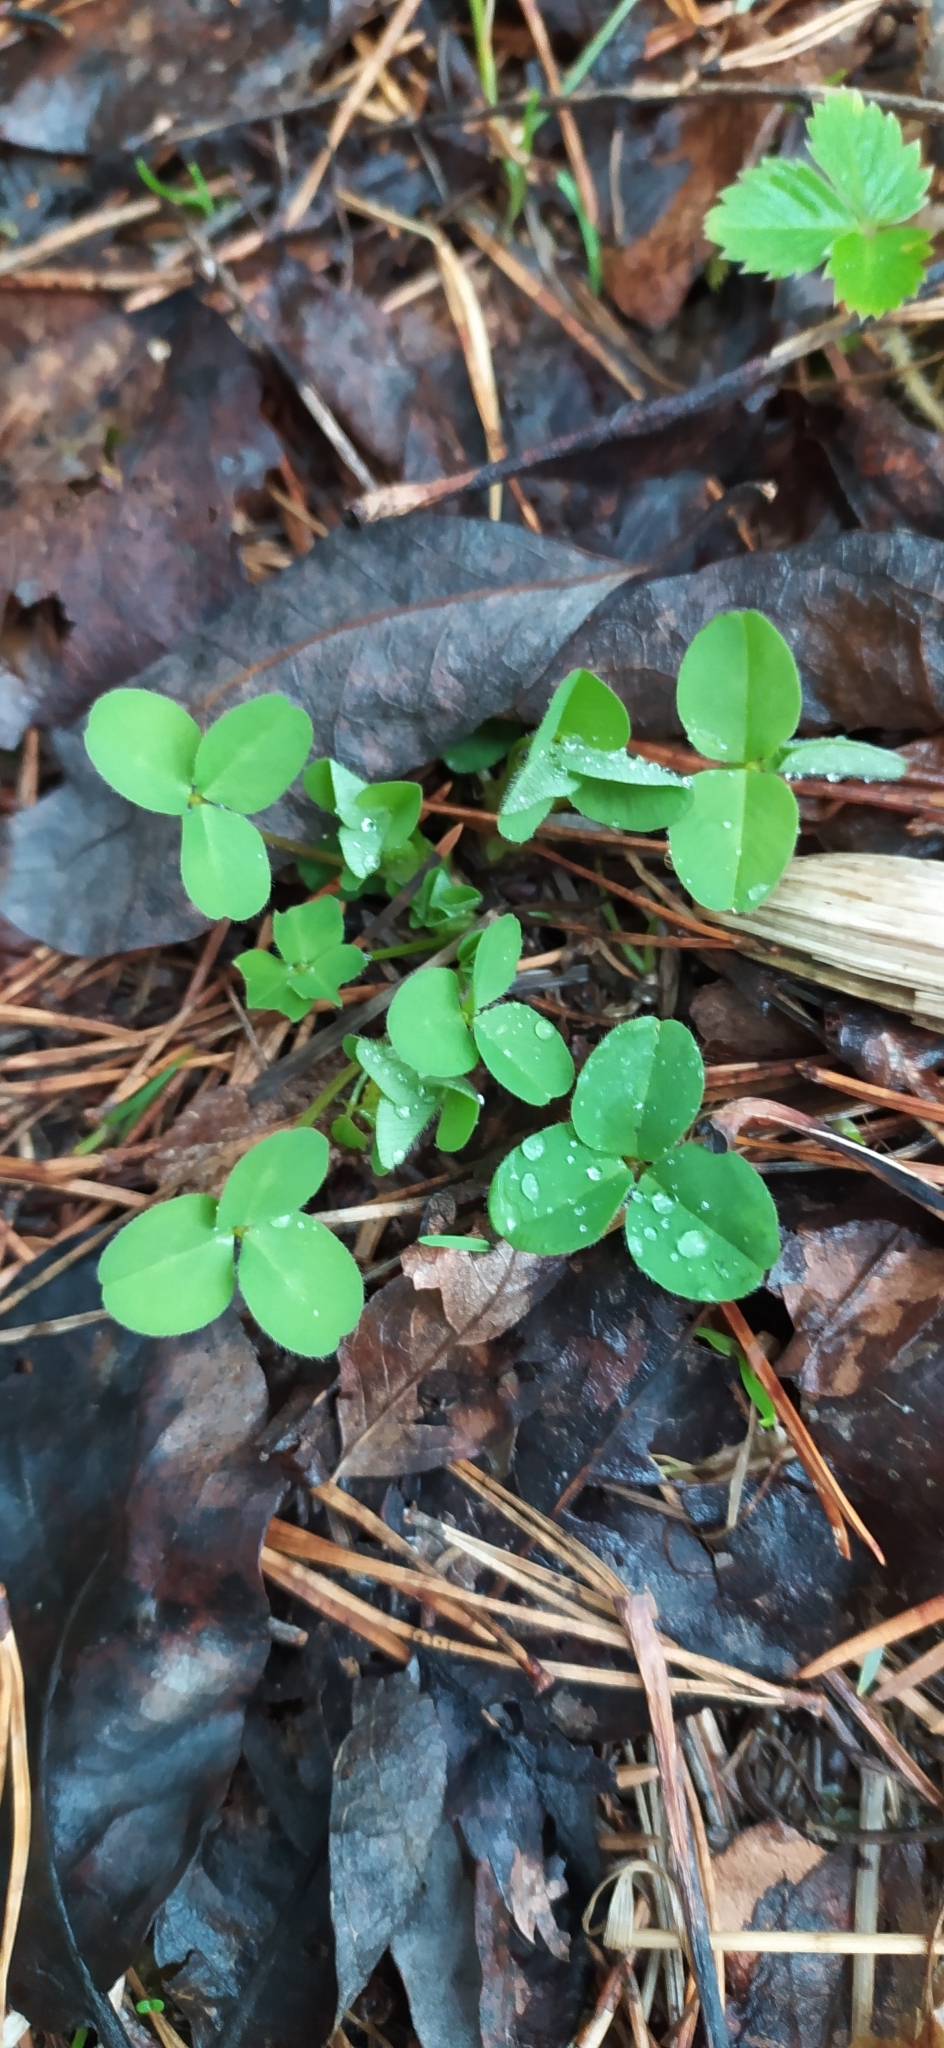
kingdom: Plantae
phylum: Tracheophyta
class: Magnoliopsida
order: Fabales
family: Fabaceae
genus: Trifolium
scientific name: Trifolium repens
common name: White clover
